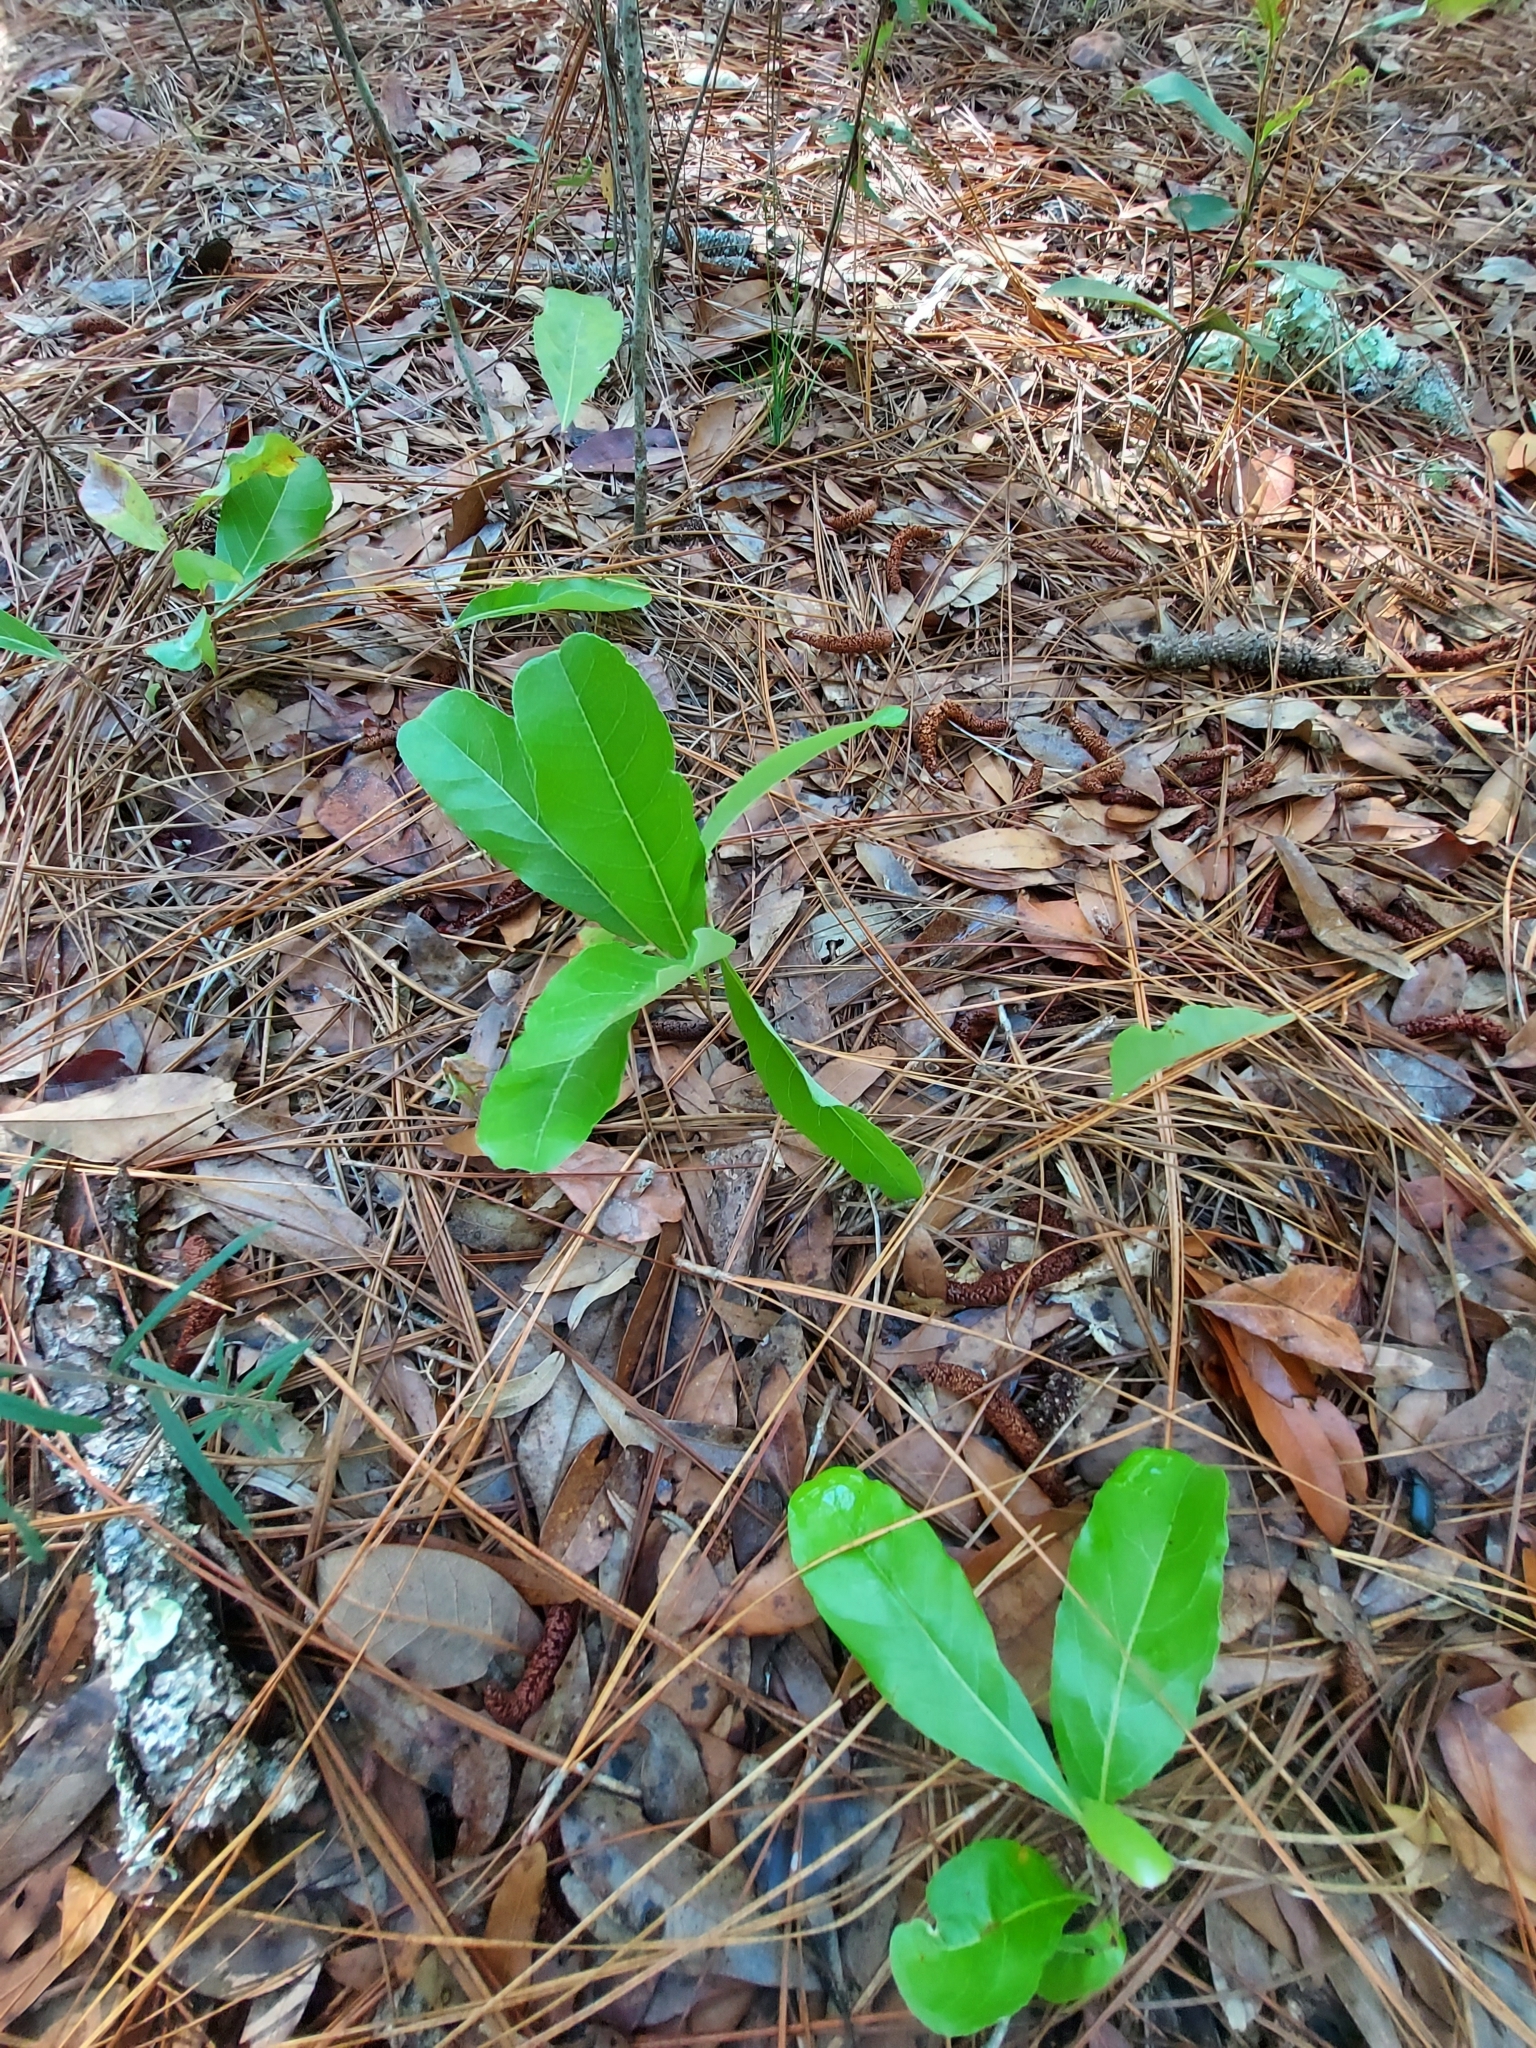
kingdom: Plantae
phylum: Tracheophyta
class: Magnoliopsida
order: Malpighiales
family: Chrysobalanaceae
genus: Geobalanus
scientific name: Geobalanus oblongifolius
